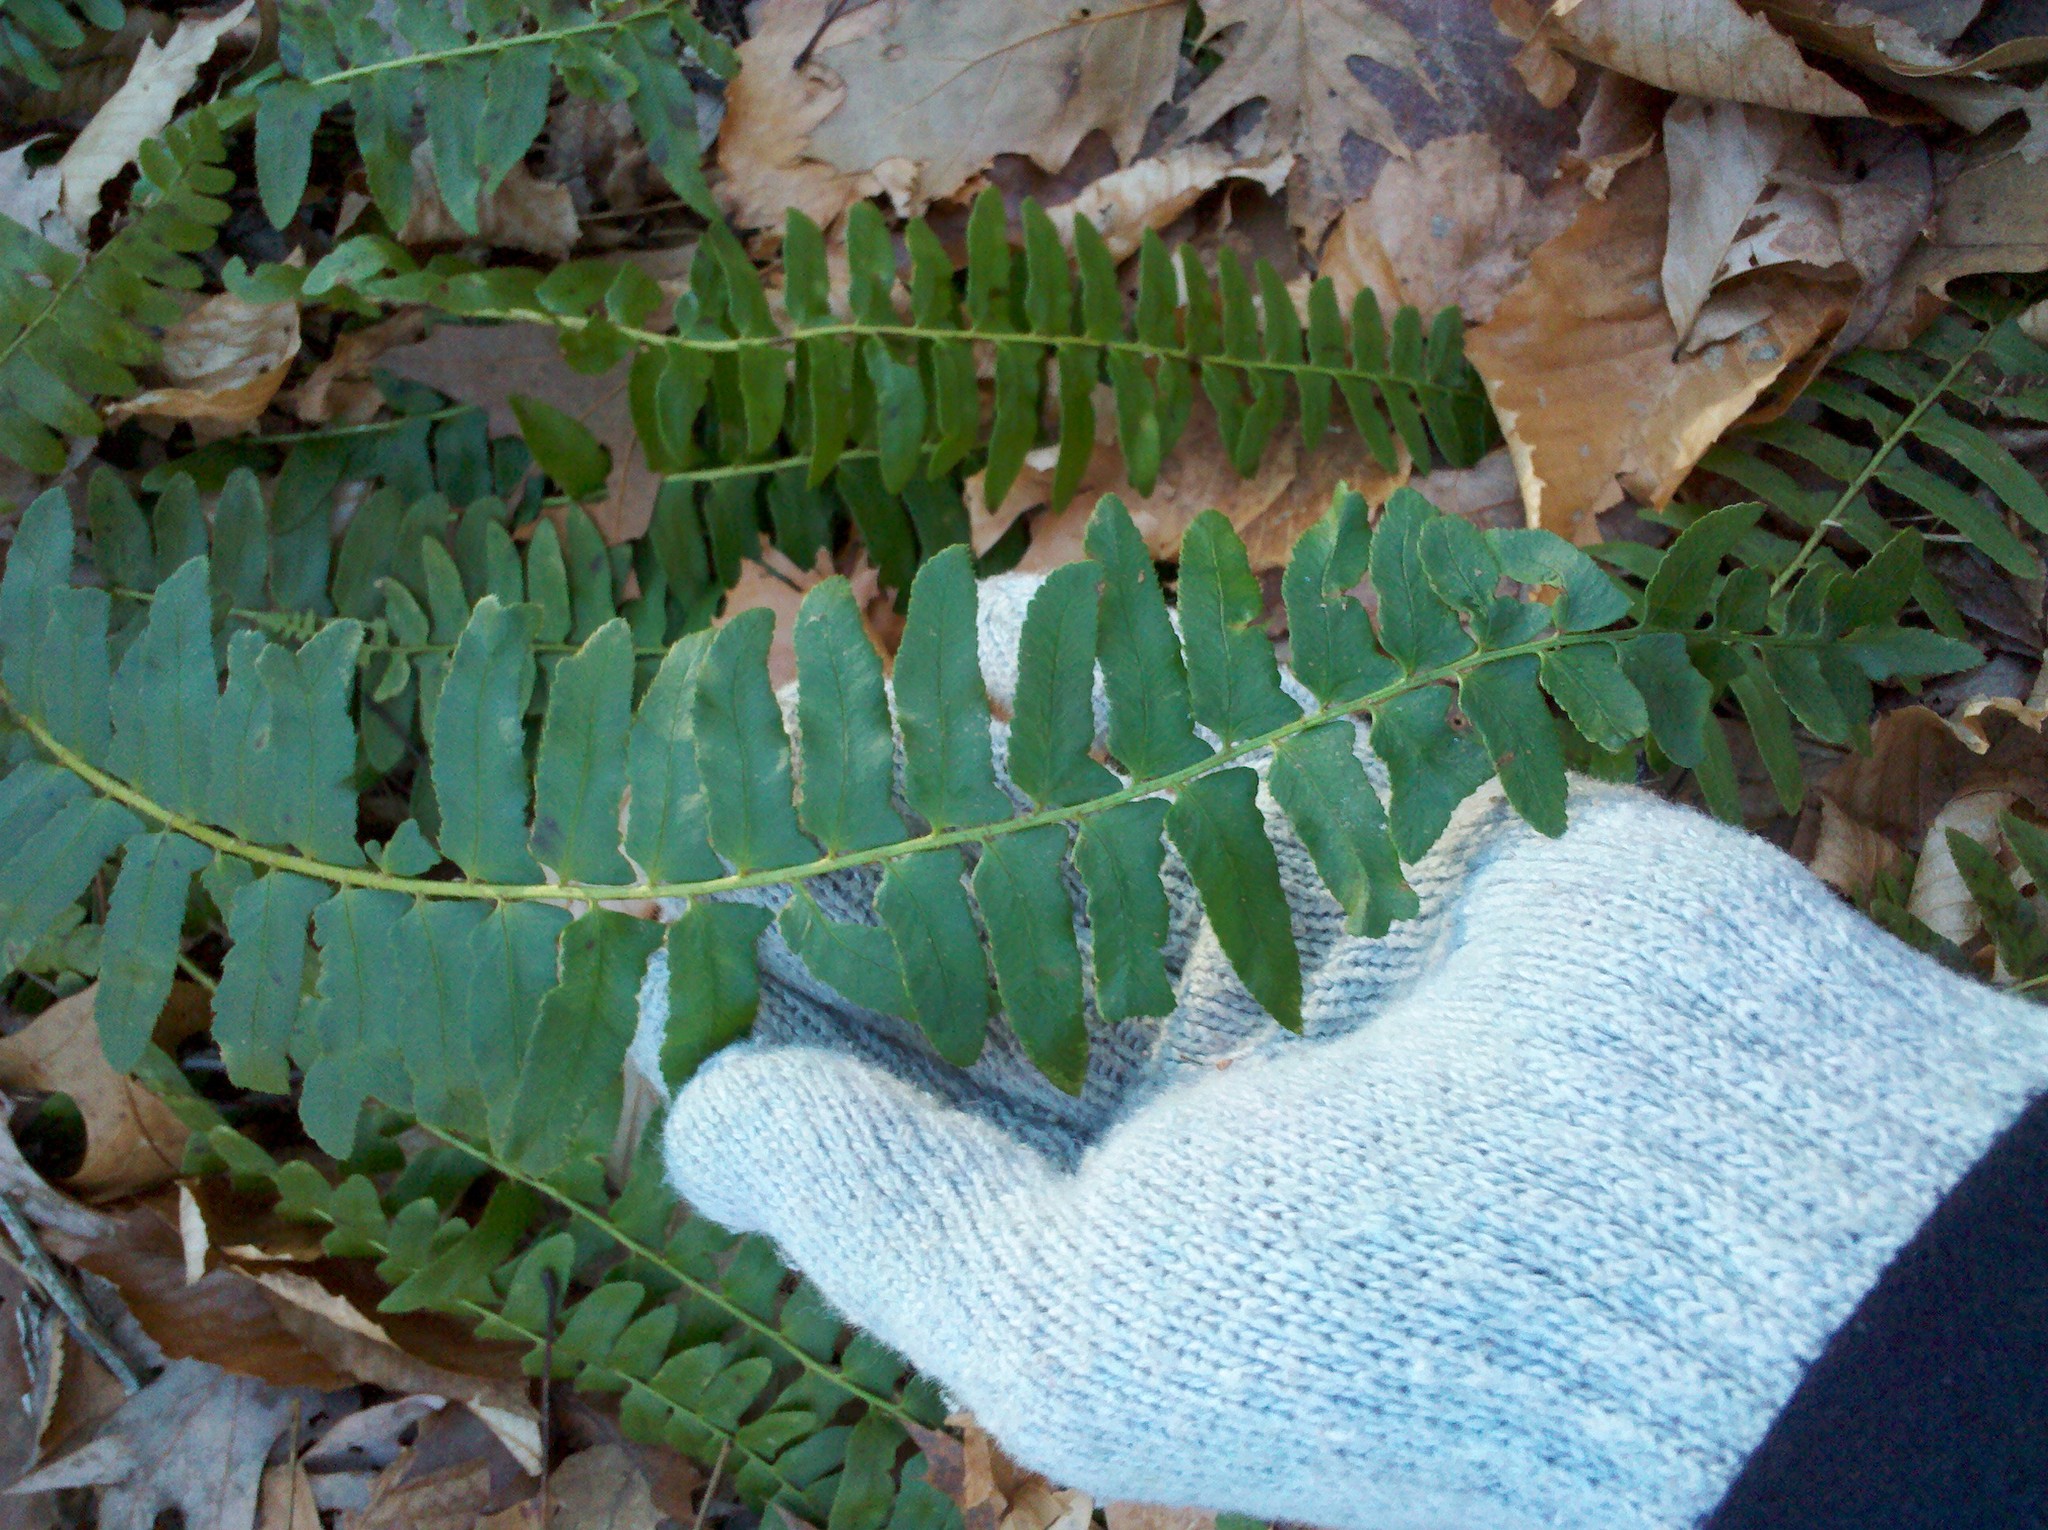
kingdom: Plantae
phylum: Tracheophyta
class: Polypodiopsida
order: Polypodiales
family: Dryopteridaceae
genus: Polystichum
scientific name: Polystichum acrostichoides
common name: Christmas fern
